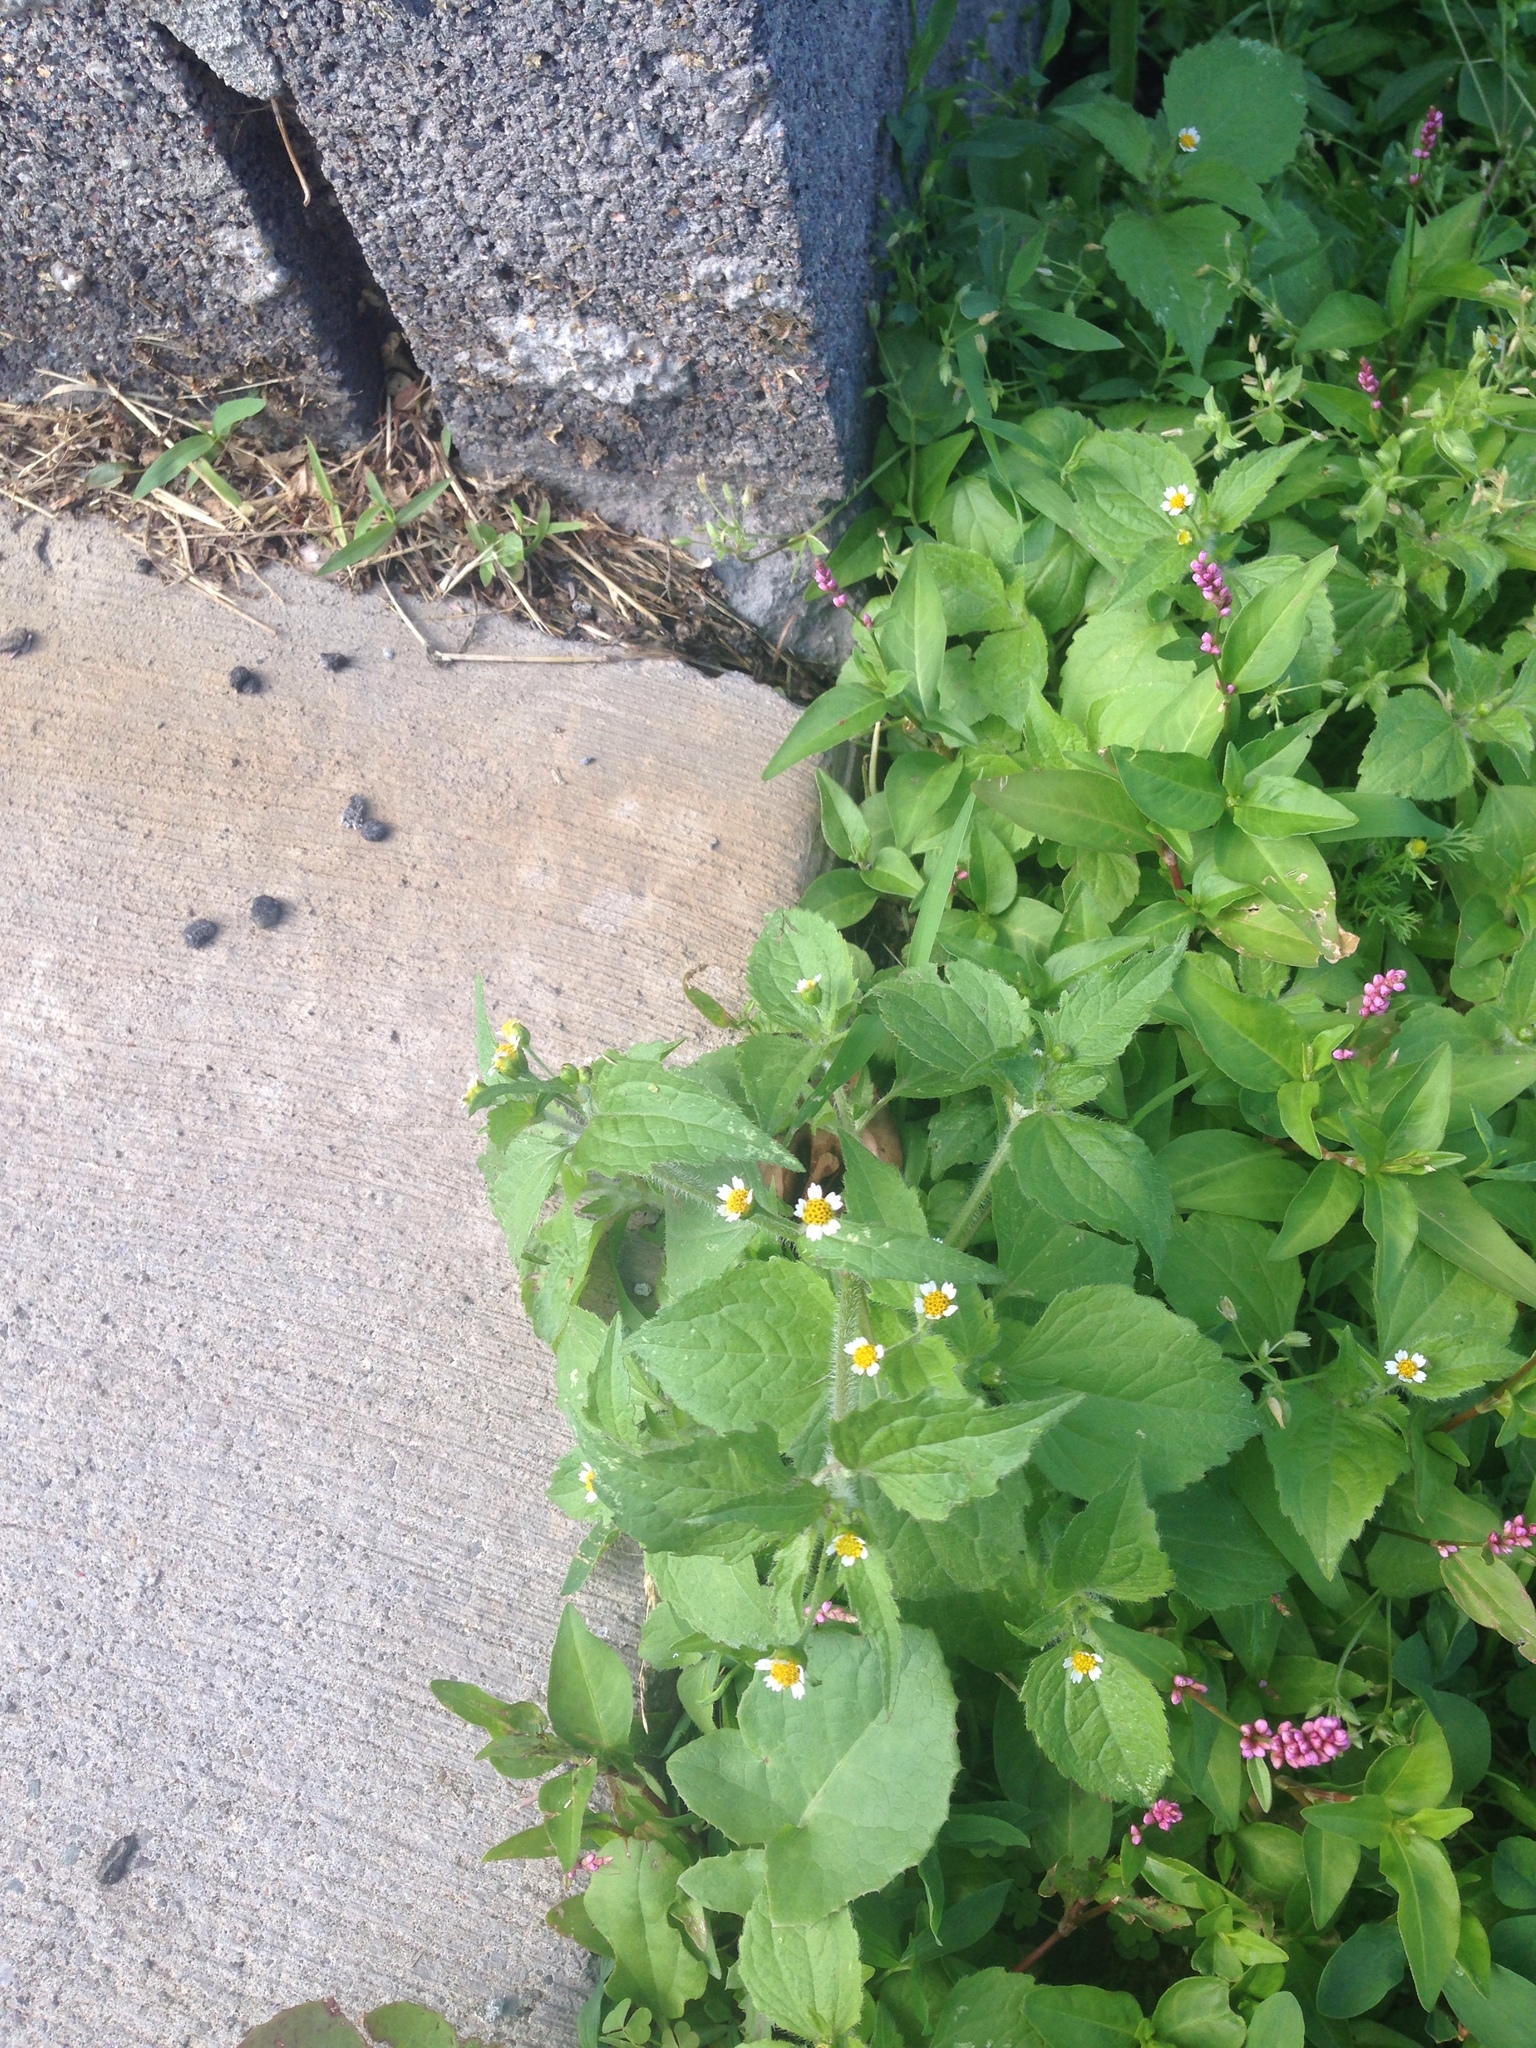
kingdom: Plantae
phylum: Tracheophyta
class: Magnoliopsida
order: Asterales
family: Asteraceae
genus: Galinsoga
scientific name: Galinsoga quadriradiata
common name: Shaggy soldier
